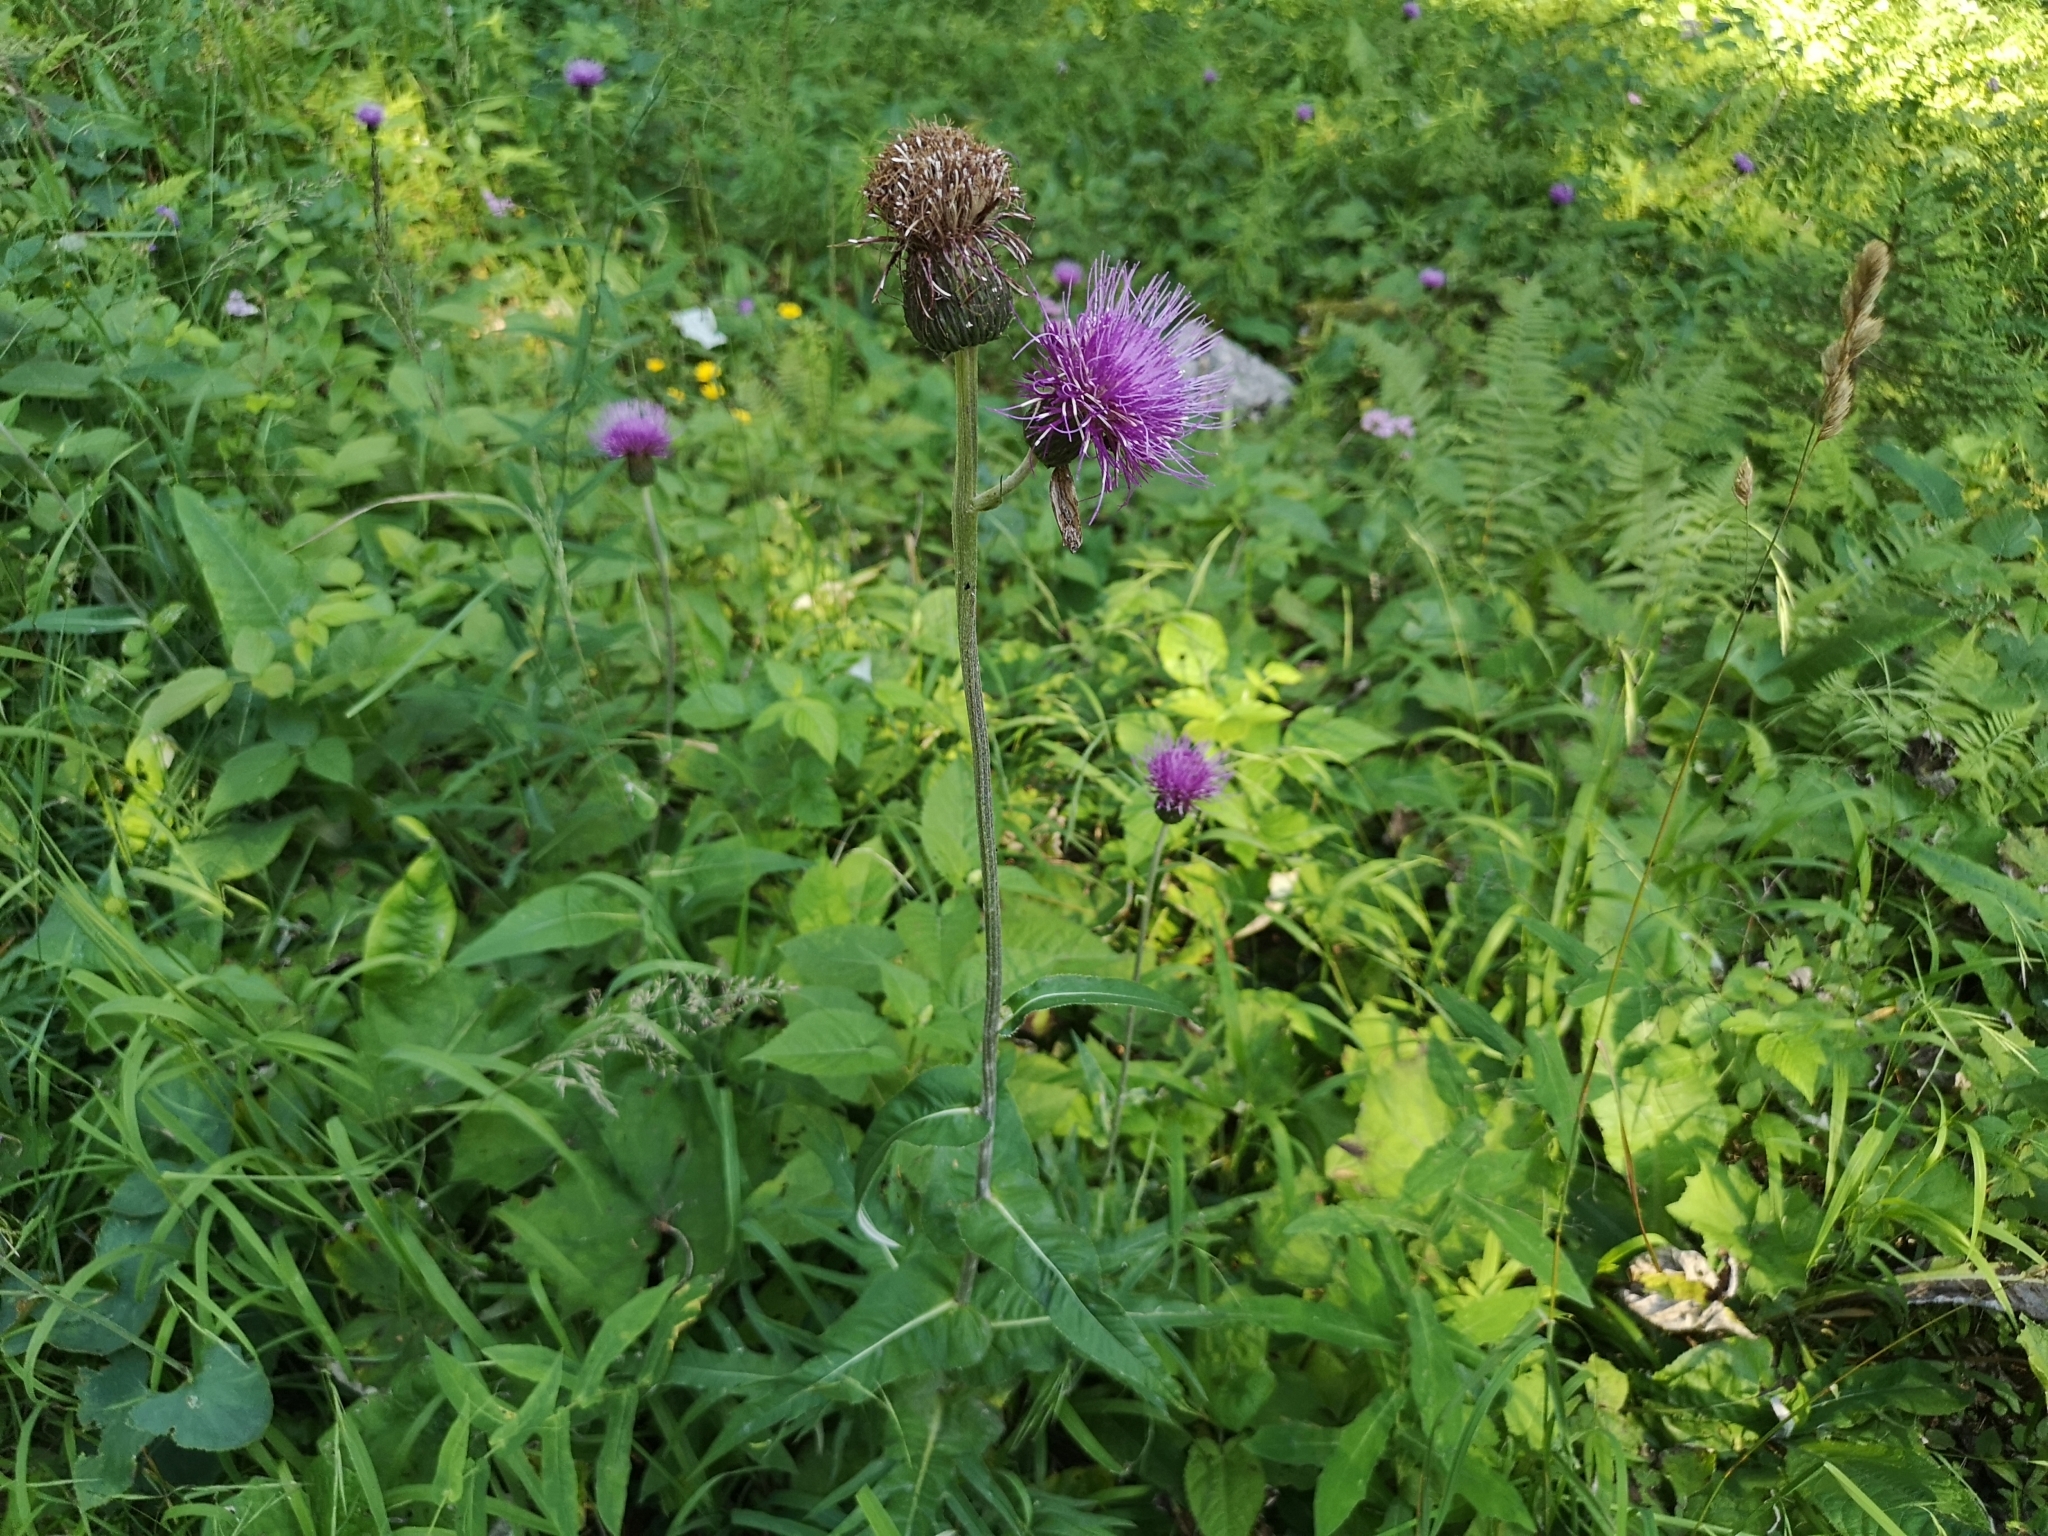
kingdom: Plantae
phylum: Tracheophyta
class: Magnoliopsida
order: Asterales
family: Asteraceae
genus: Cirsium
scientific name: Cirsium heterophyllum
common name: Melancholy thistle
